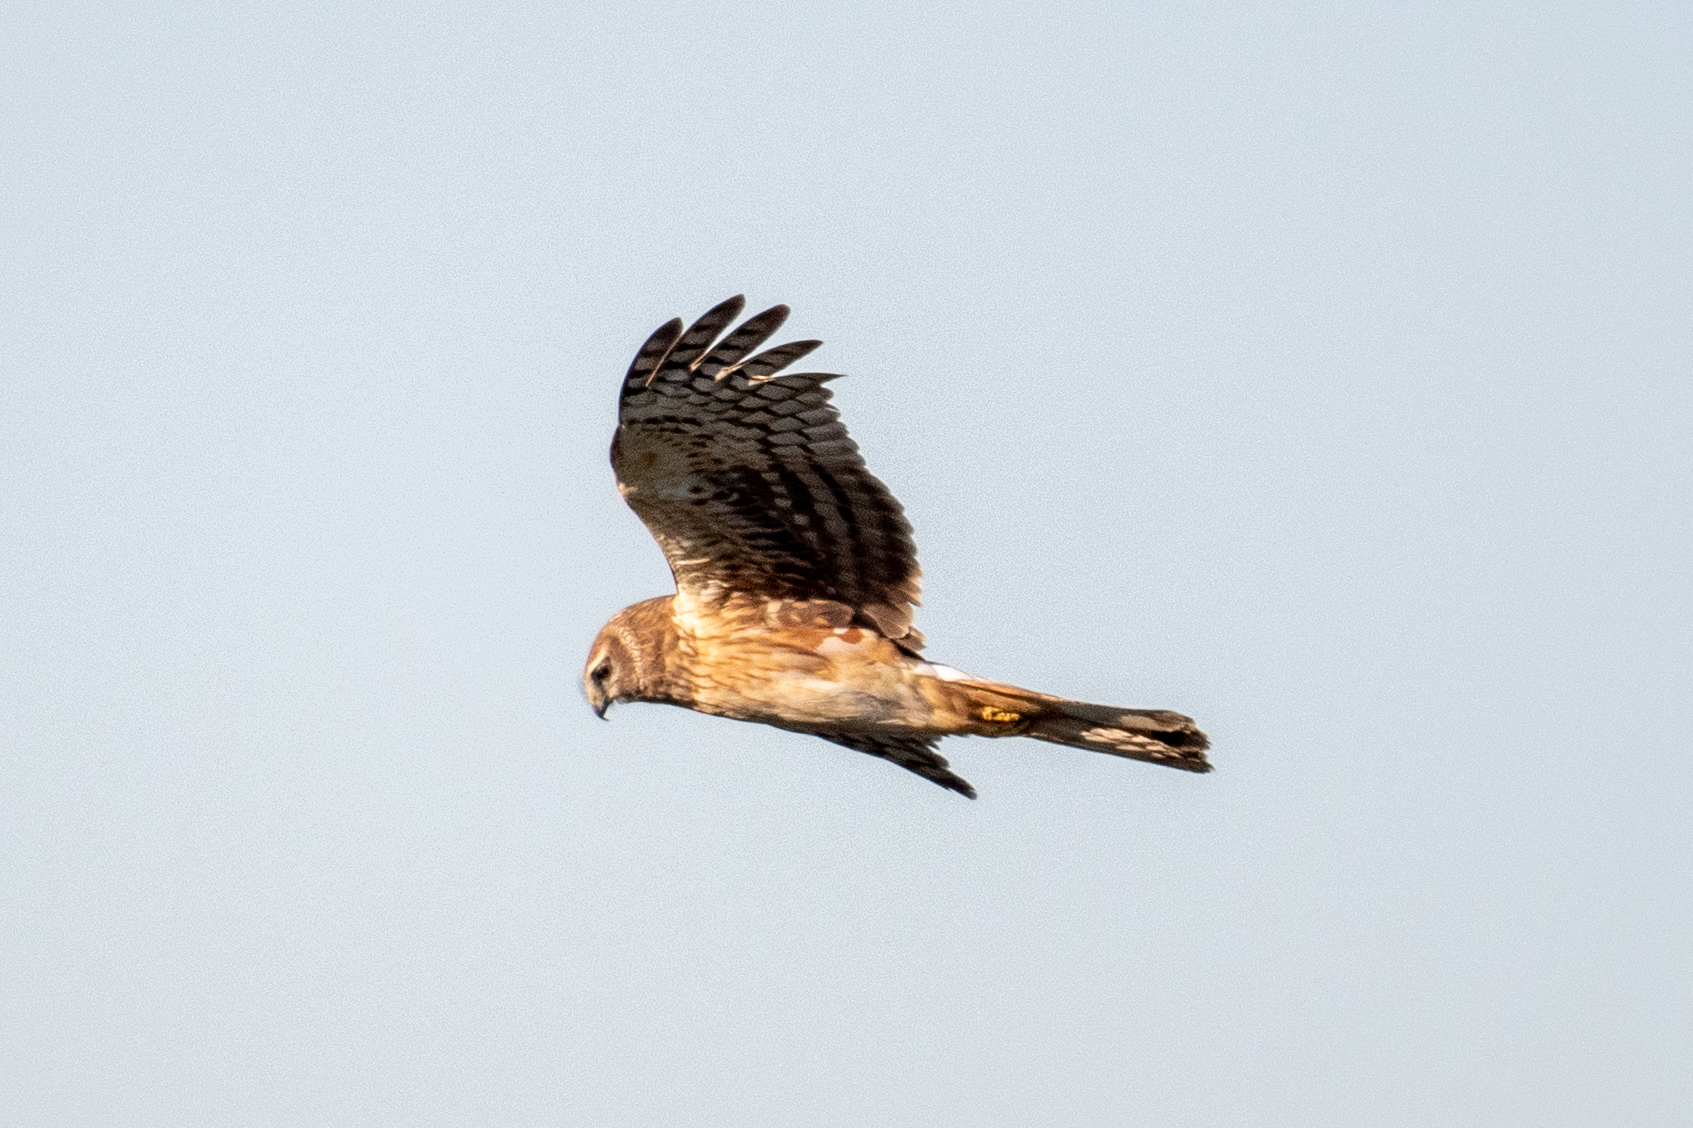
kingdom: Animalia
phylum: Chordata
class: Aves
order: Accipitriformes
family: Accipitridae
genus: Circus
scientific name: Circus cyaneus
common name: Hen harrier
